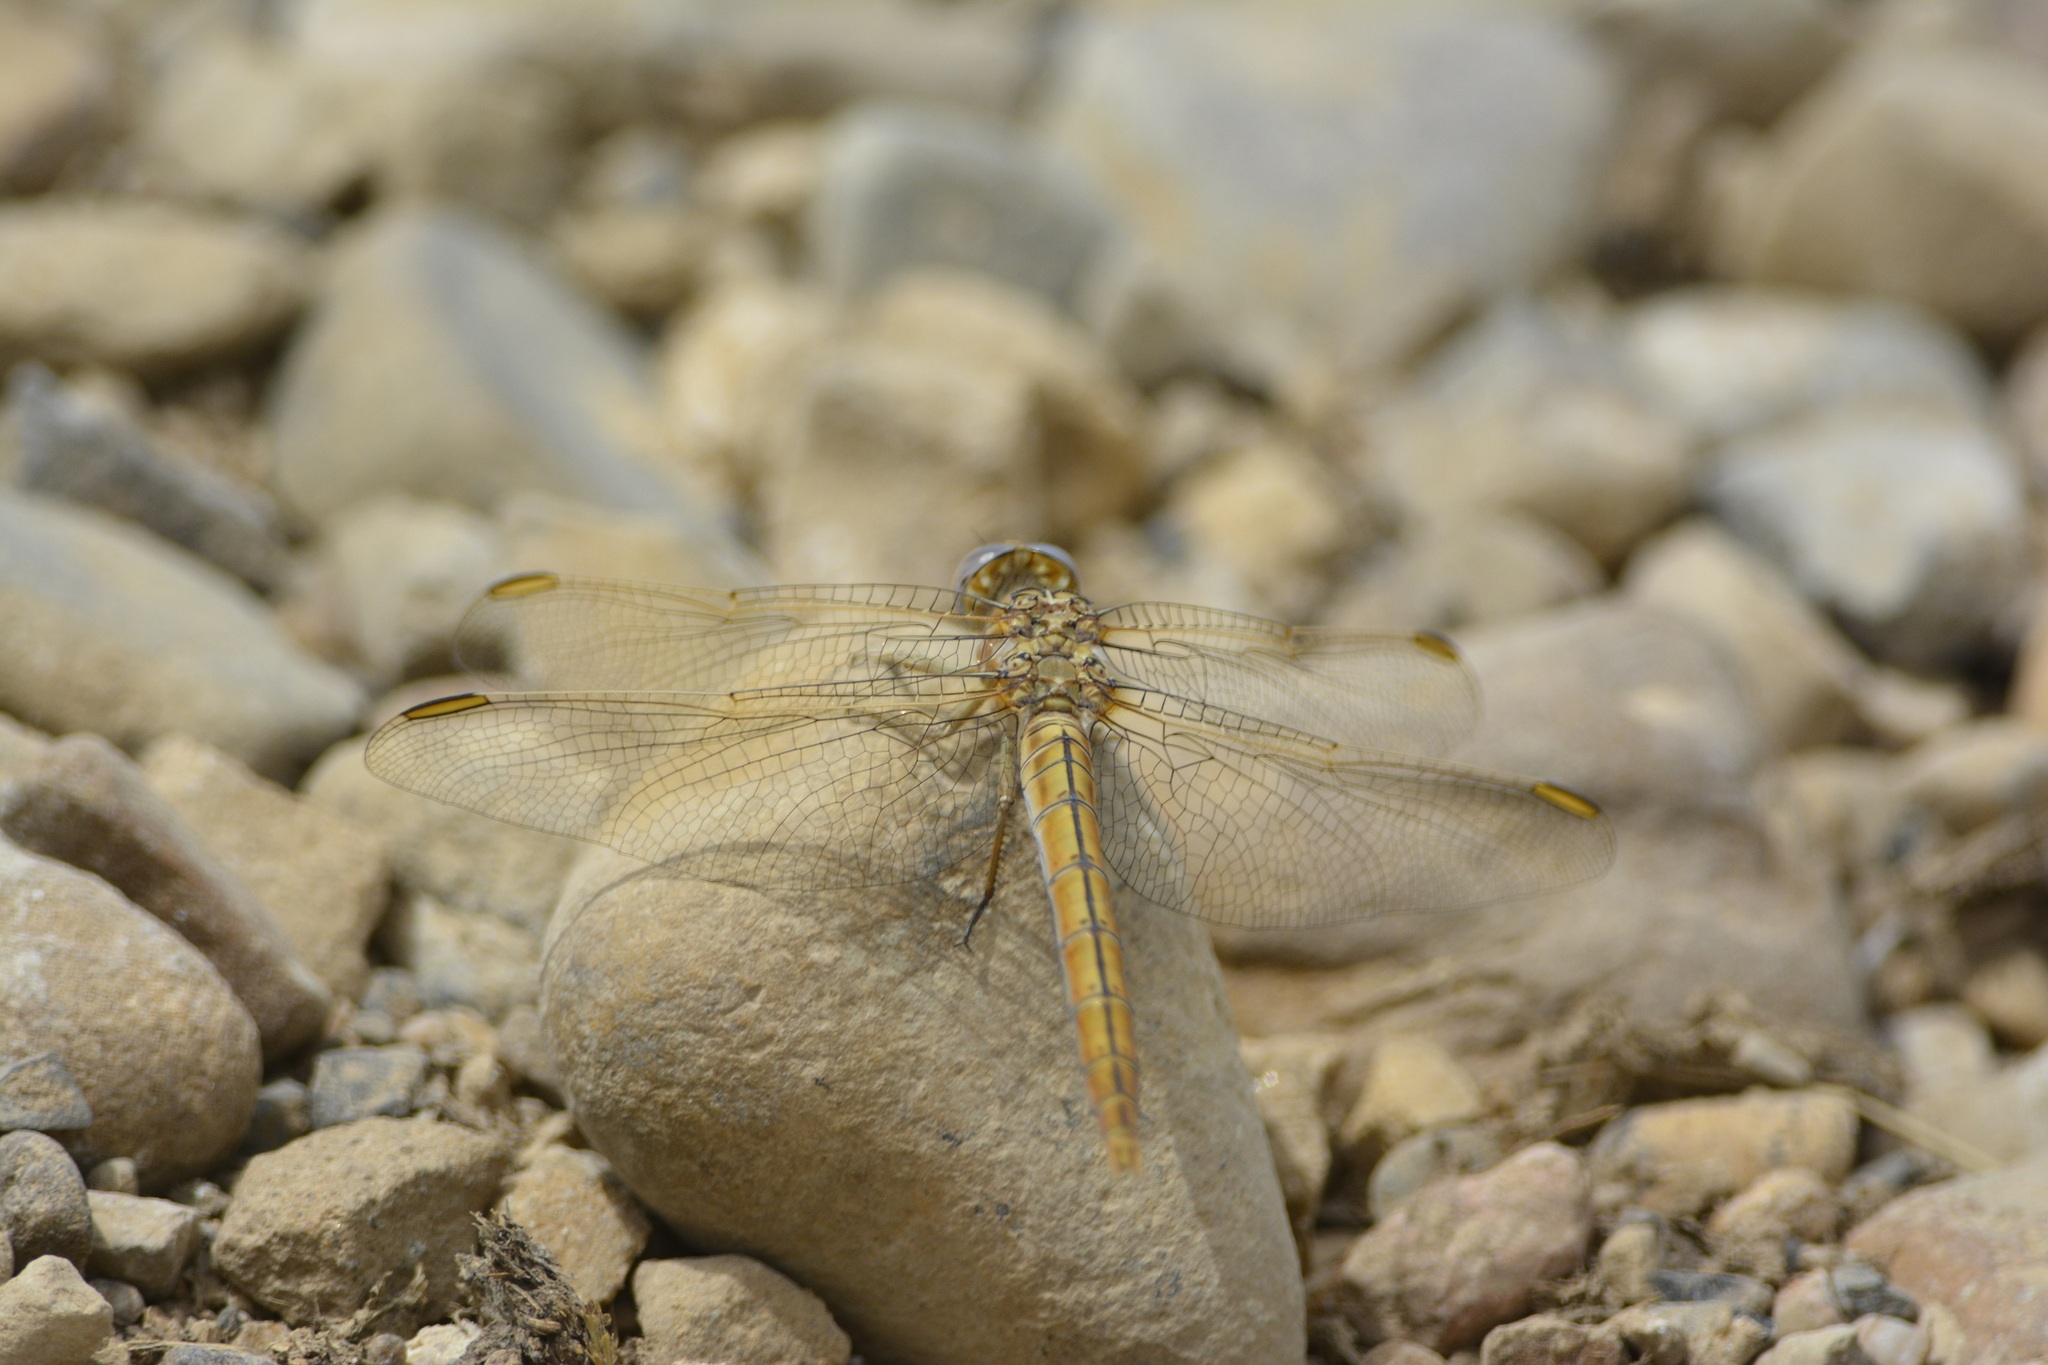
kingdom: Animalia
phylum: Arthropoda
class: Insecta
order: Odonata
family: Libellulidae
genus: Orthetrum
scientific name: Orthetrum nitidinerve
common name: Yellow-veined skimmer
